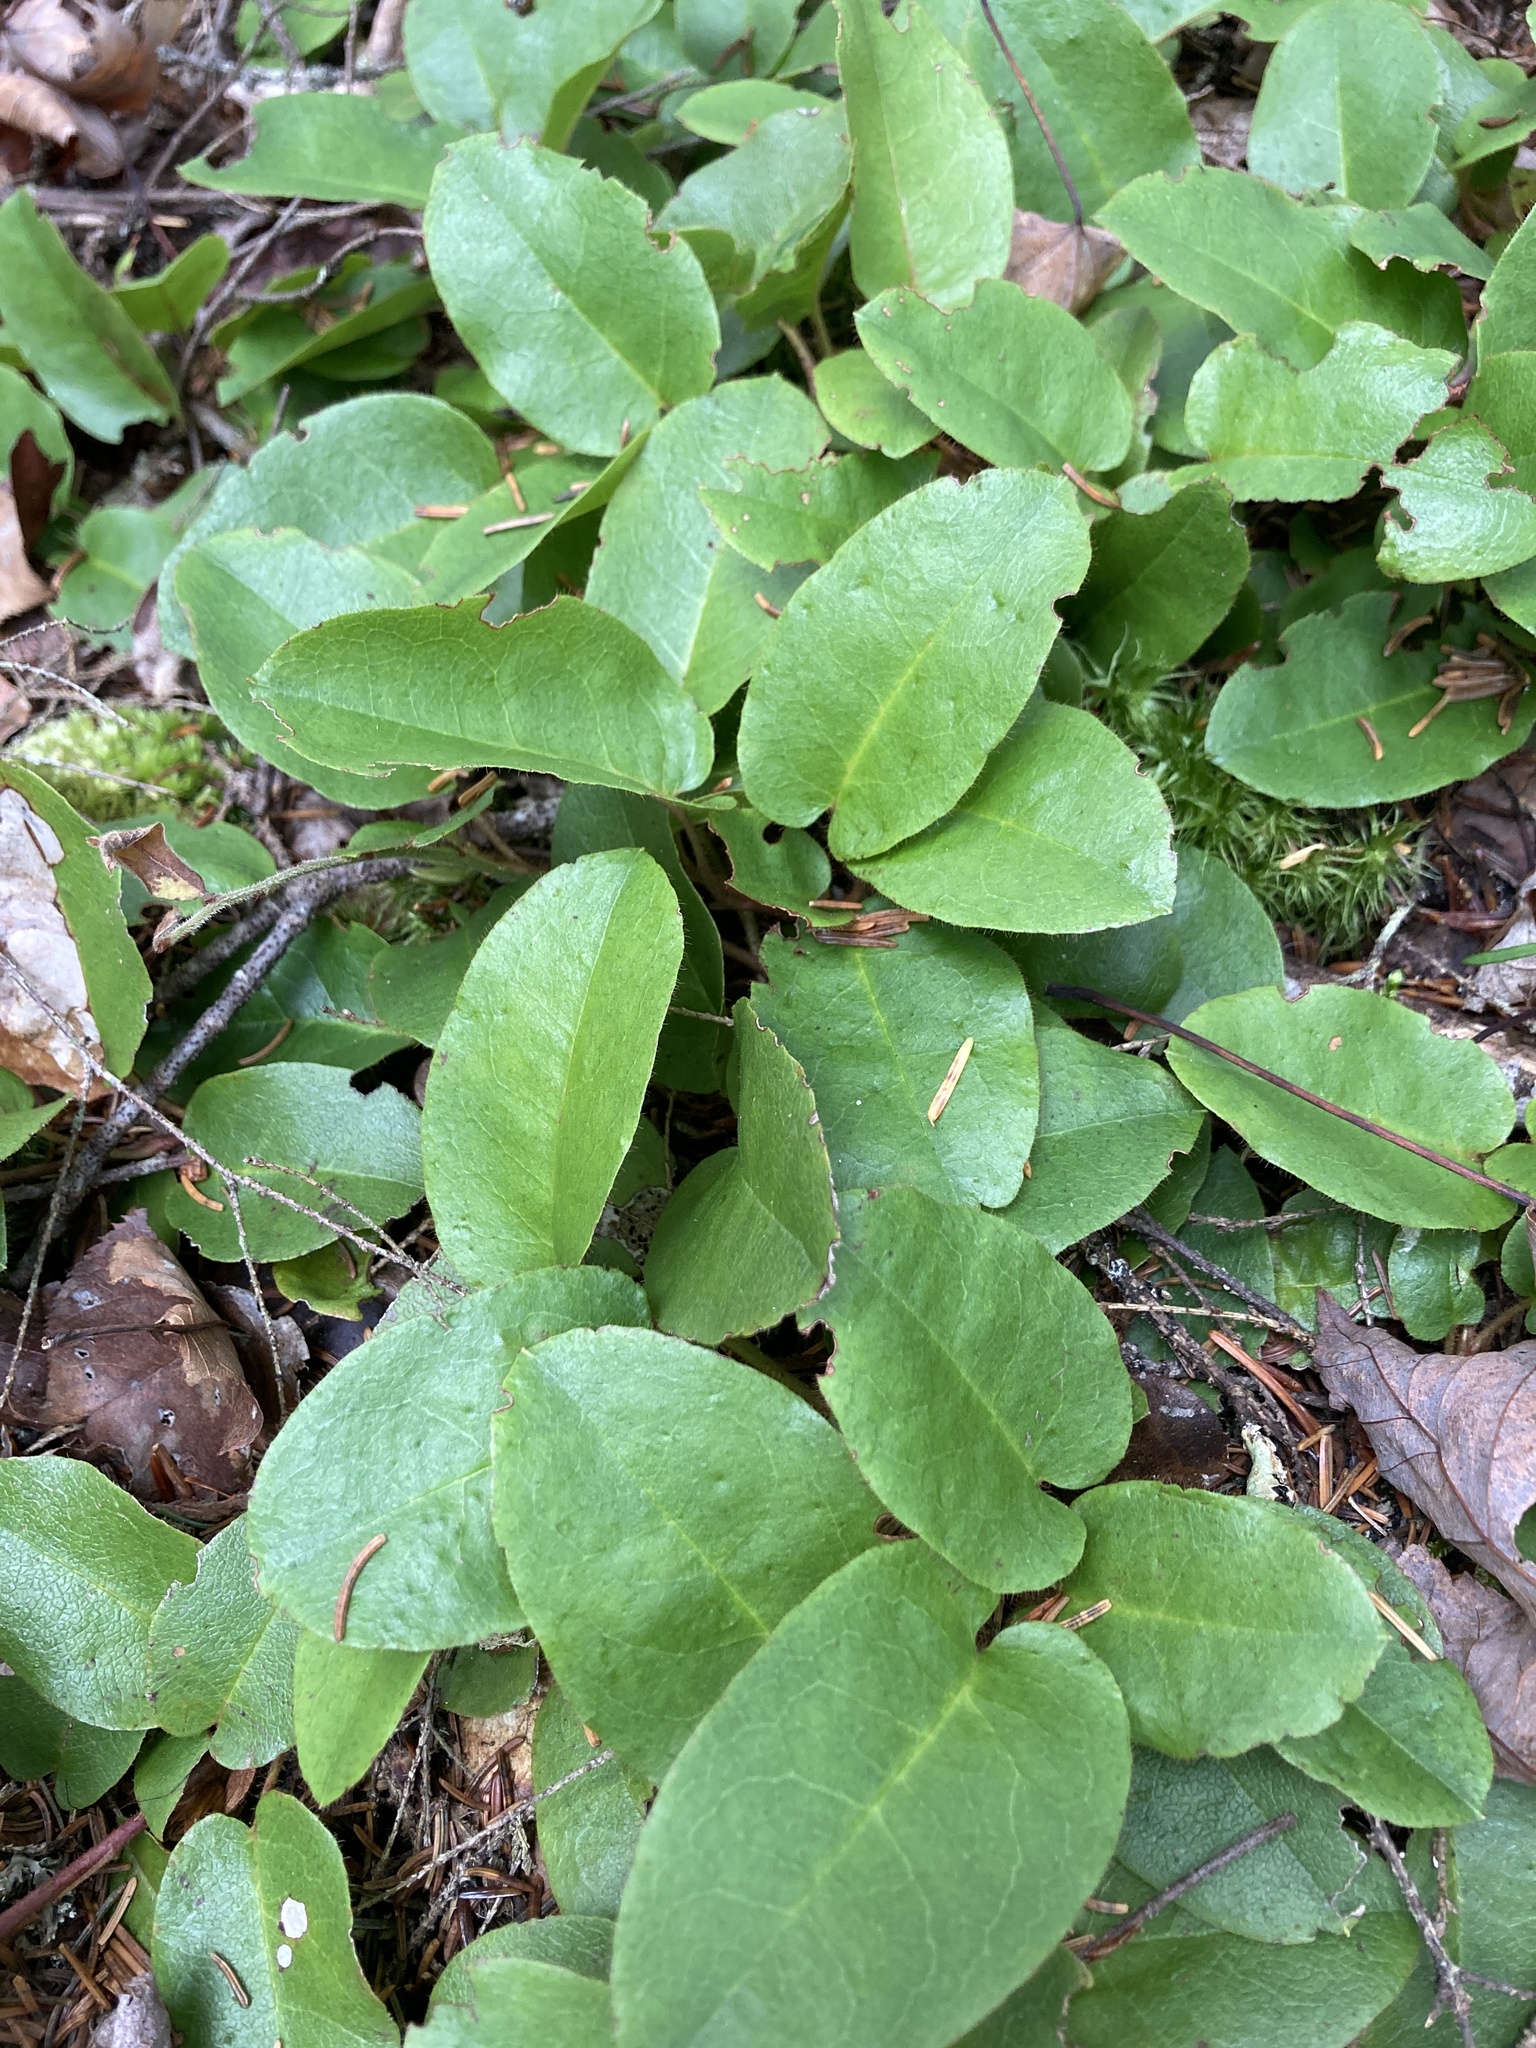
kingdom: Plantae
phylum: Tracheophyta
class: Magnoliopsida
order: Ericales
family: Ericaceae
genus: Epigaea
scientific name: Epigaea repens
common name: Gravelroot
